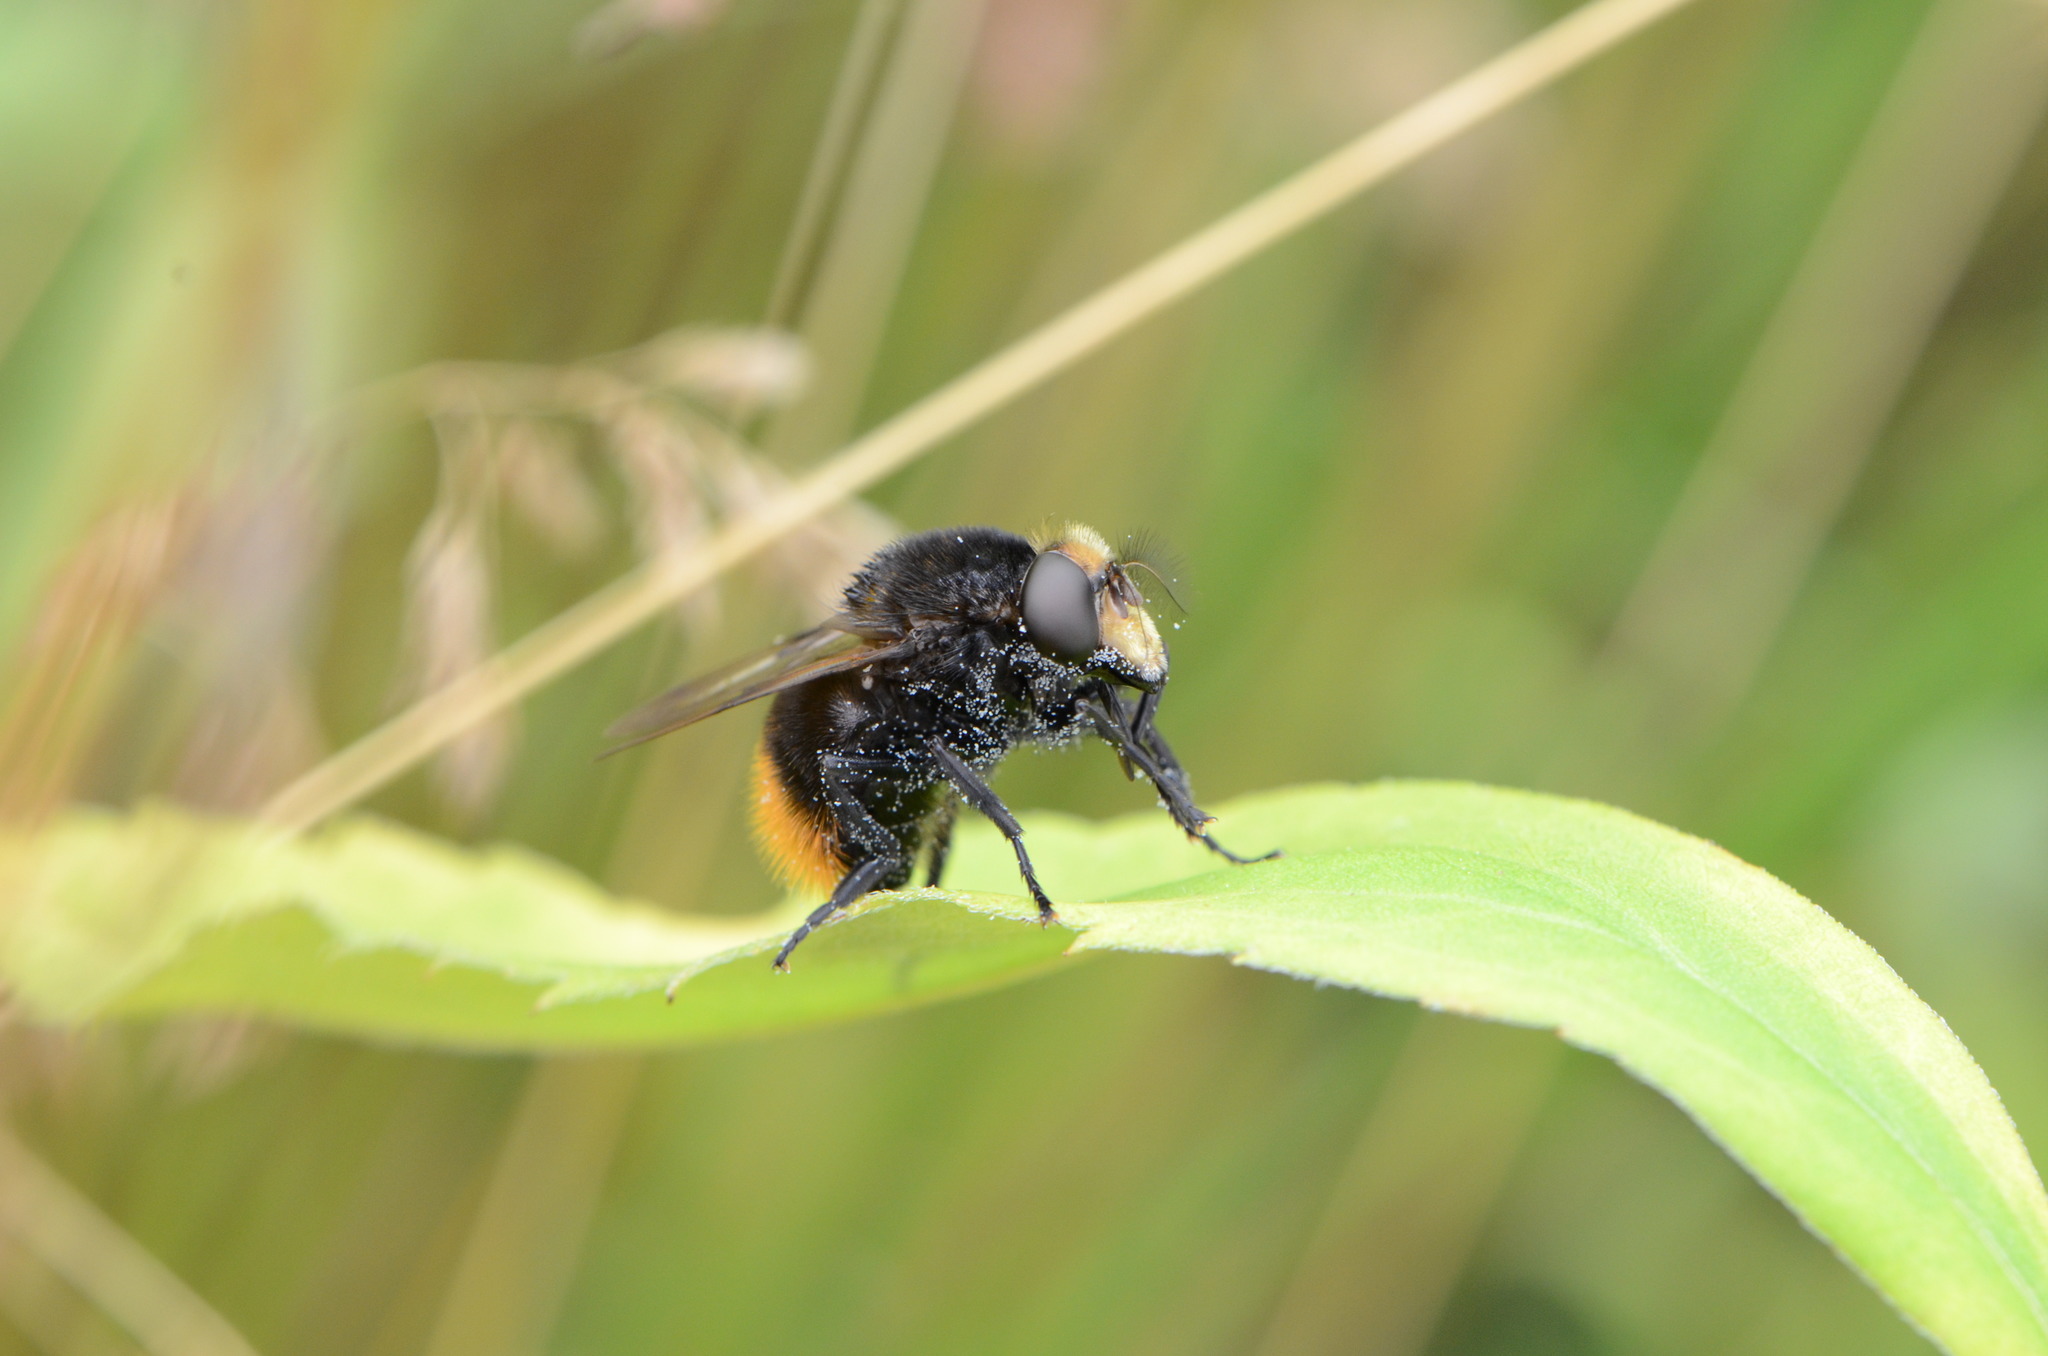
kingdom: Animalia
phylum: Arthropoda
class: Insecta
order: Diptera
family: Syrphidae
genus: Volucella
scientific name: Volucella bombylans
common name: Bumble bee hover fly
